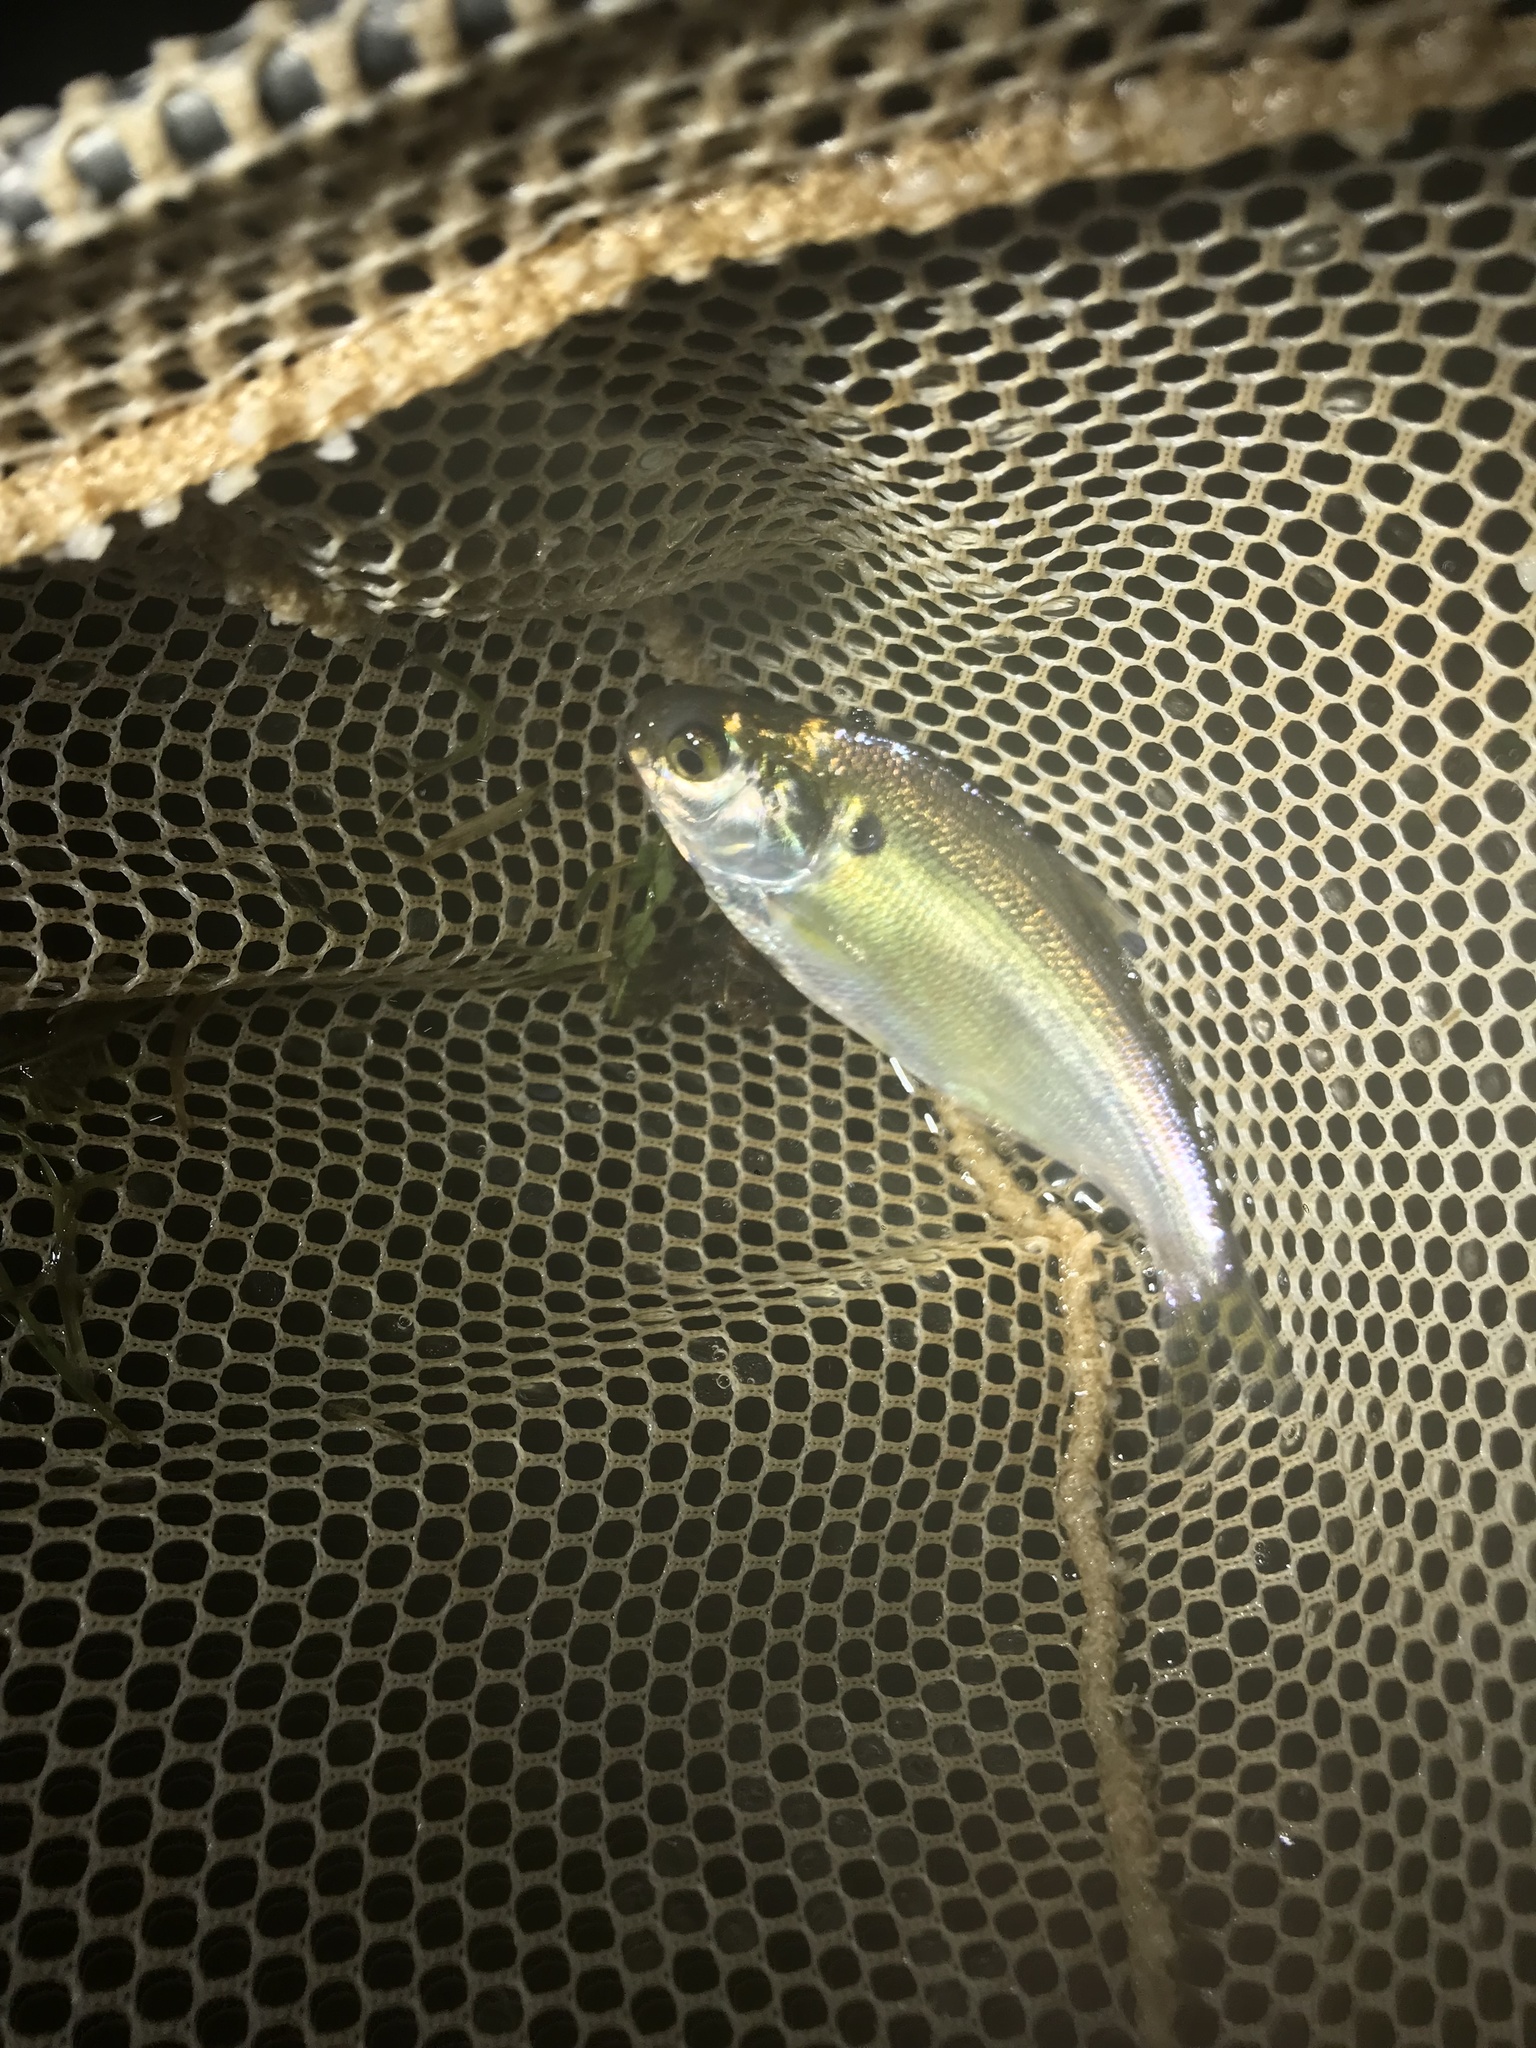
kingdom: Animalia
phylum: Chordata
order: Clupeiformes
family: Clupeidae
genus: Dorosoma
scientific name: Dorosoma cepedianum
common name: Gizzard shad
